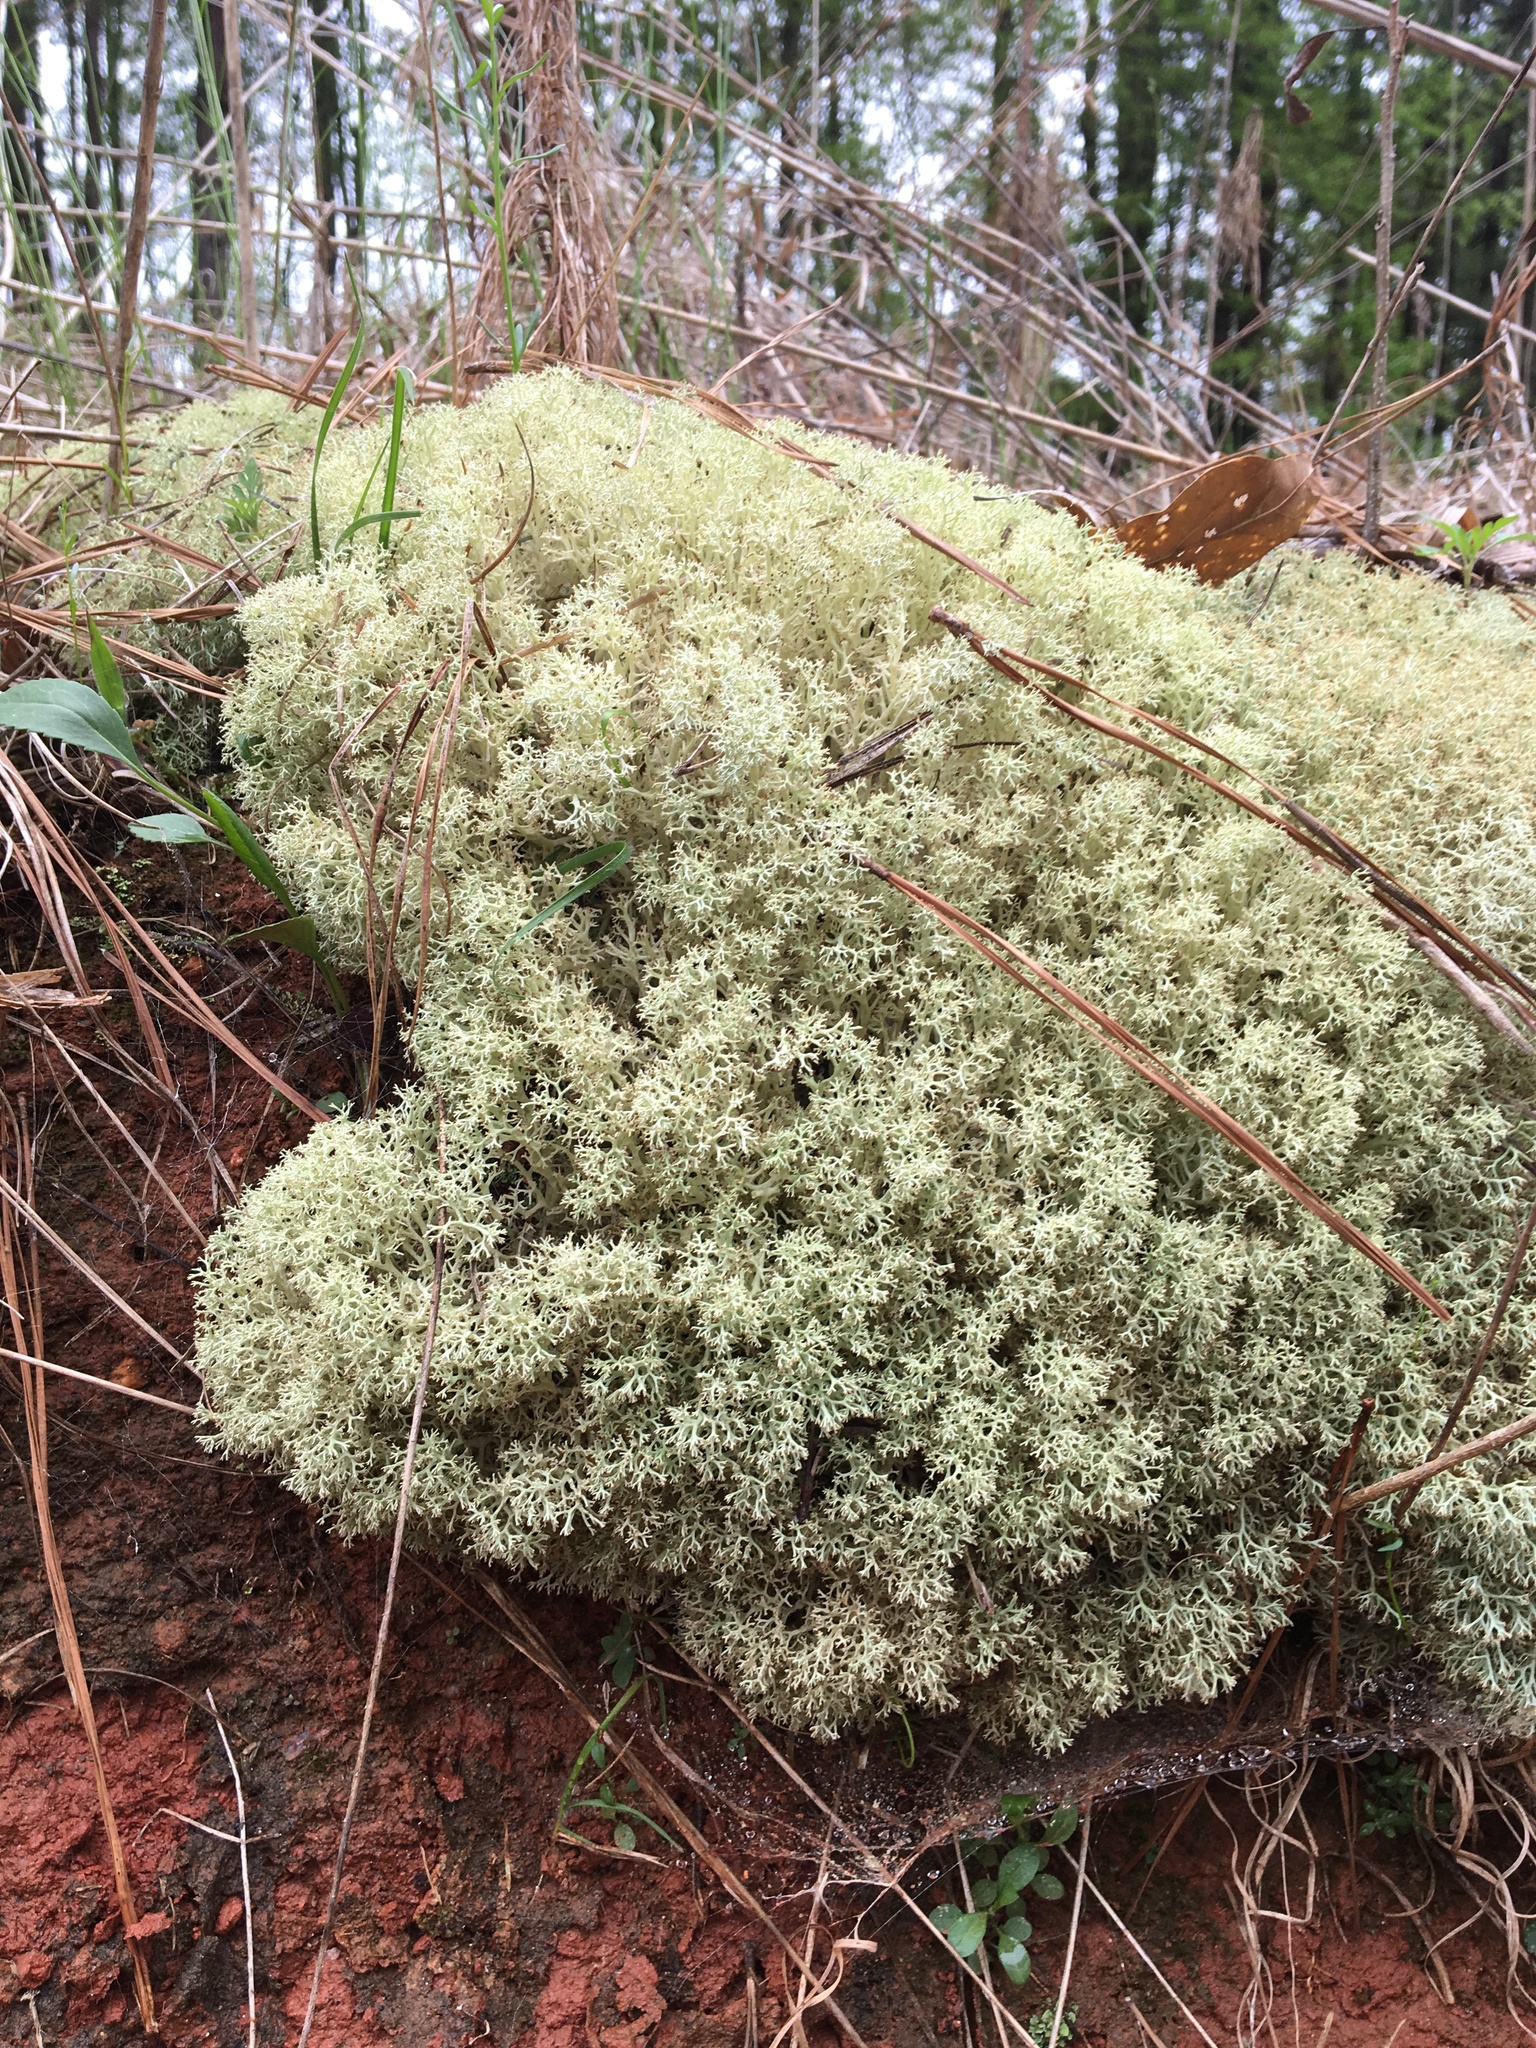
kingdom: Fungi
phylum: Ascomycota
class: Lecanoromycetes
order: Lecanorales
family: Cladoniaceae
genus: Cladonia
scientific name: Cladonia subtenuis
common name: Dixie reindeer lichen
